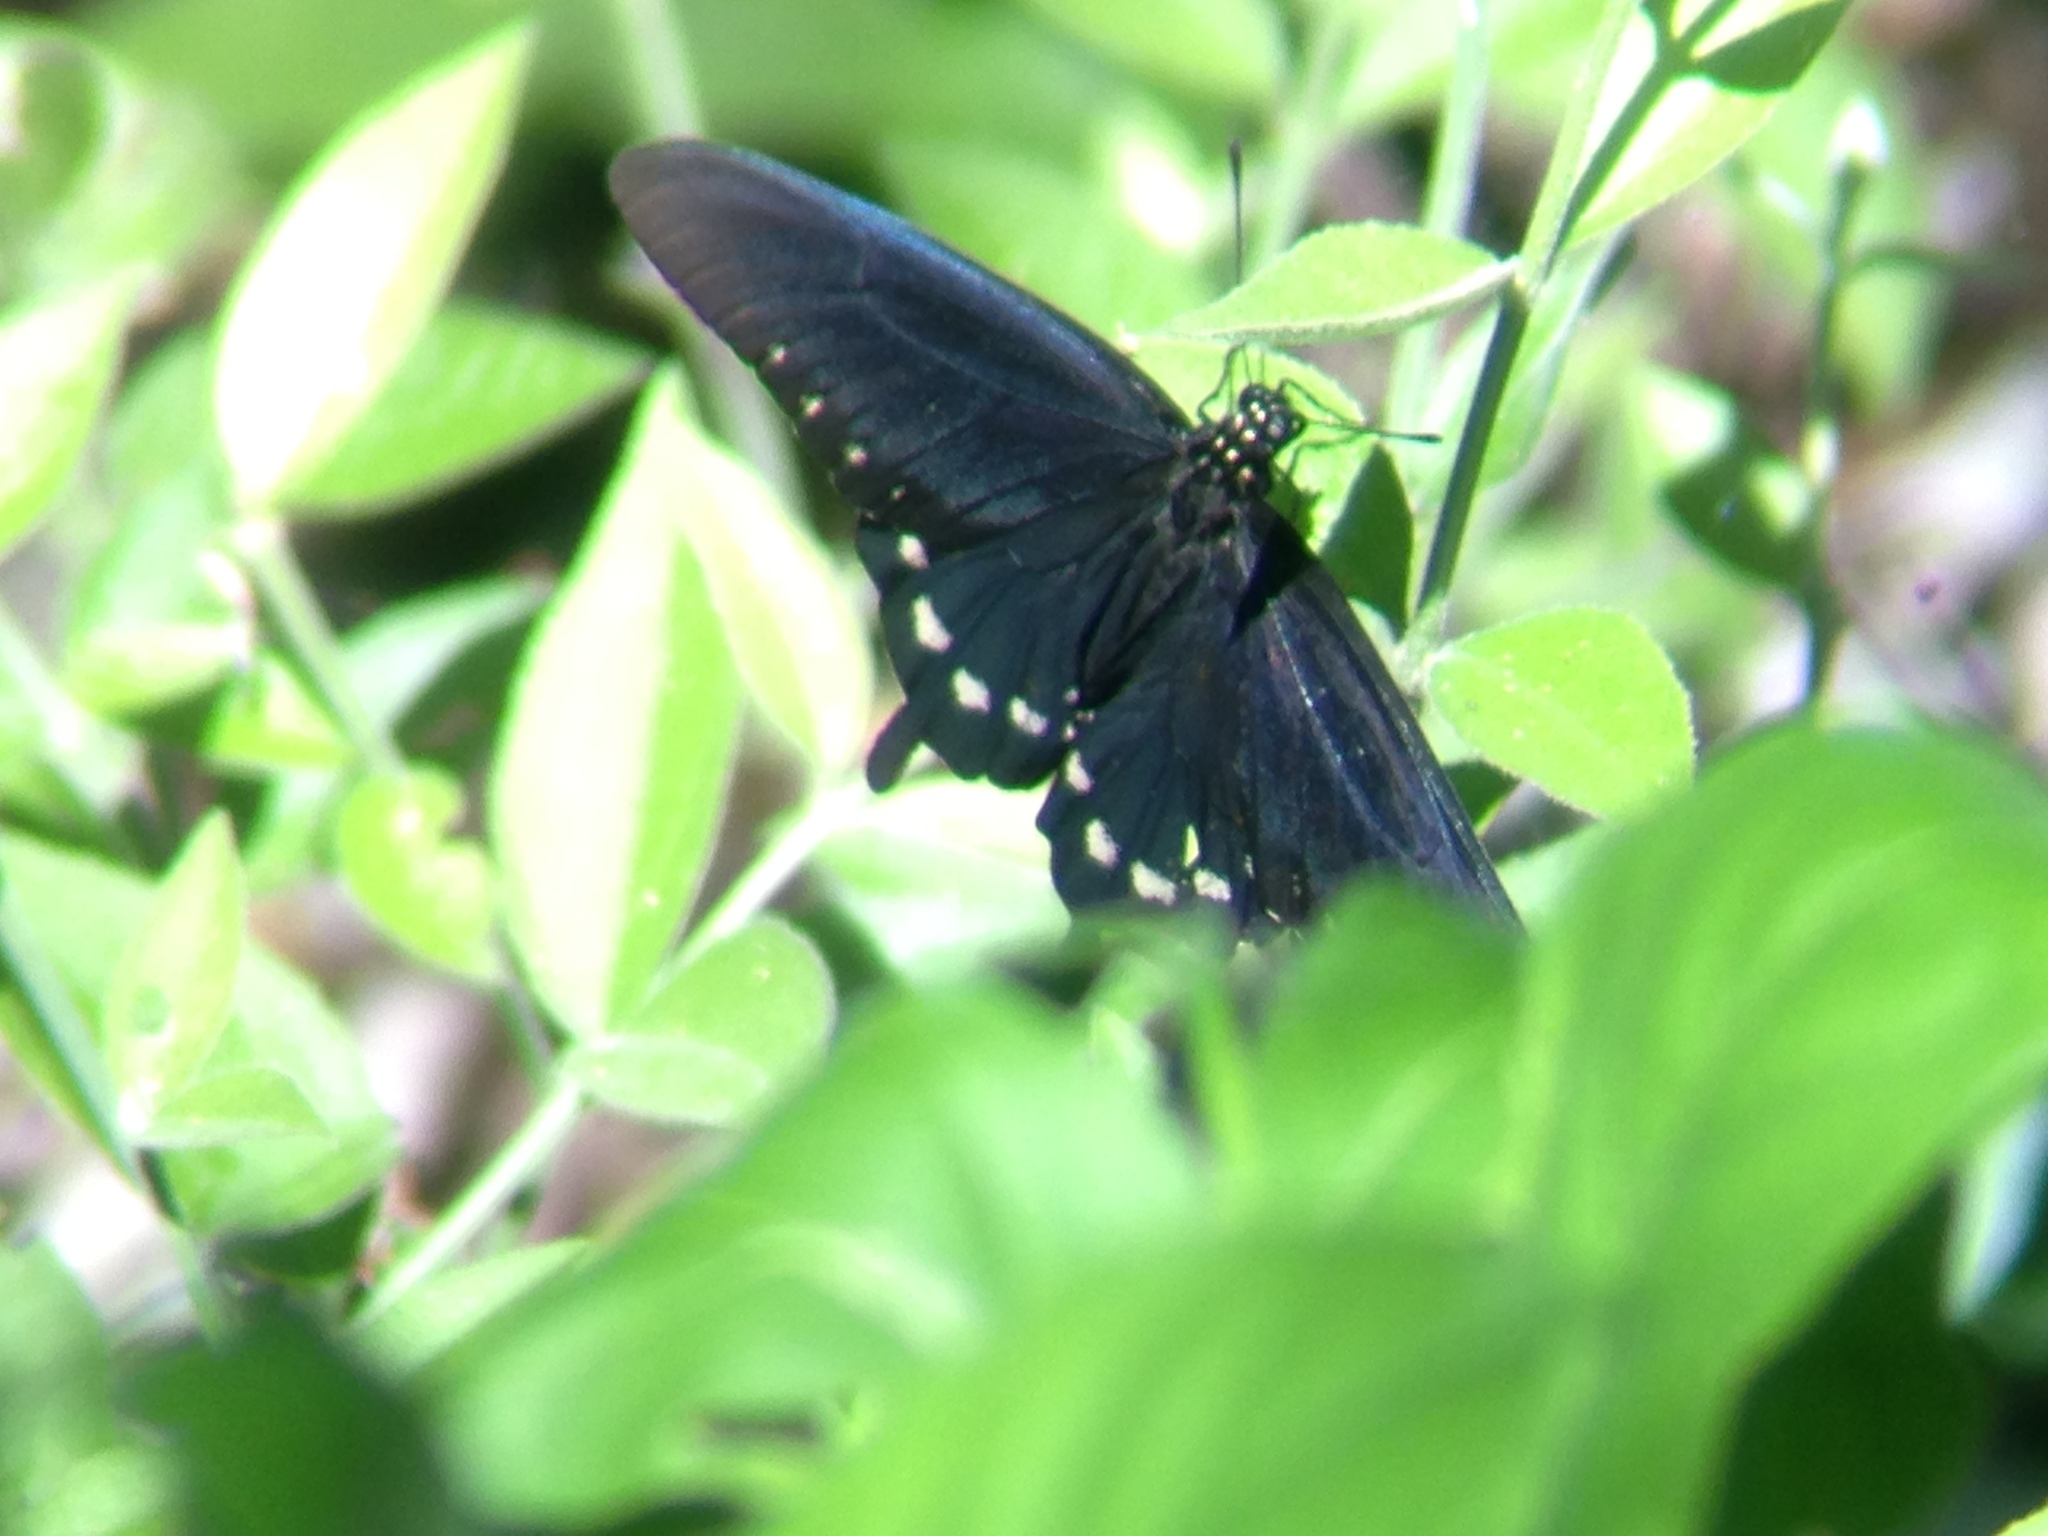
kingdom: Animalia
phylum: Arthropoda
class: Insecta
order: Lepidoptera
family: Papilionidae
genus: Battus
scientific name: Battus philenor
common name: Pipevine swallowtail
